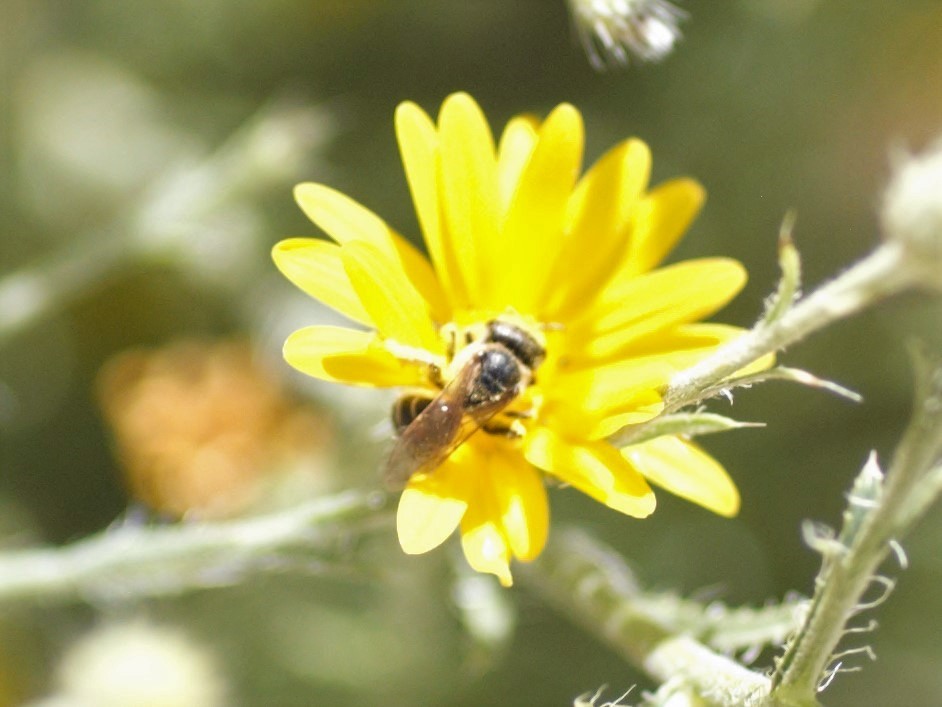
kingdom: Animalia
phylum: Arthropoda
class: Insecta
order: Hymenoptera
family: Halictidae
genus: Halictus
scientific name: Halictus ligatus
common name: Ligated furrow bee
